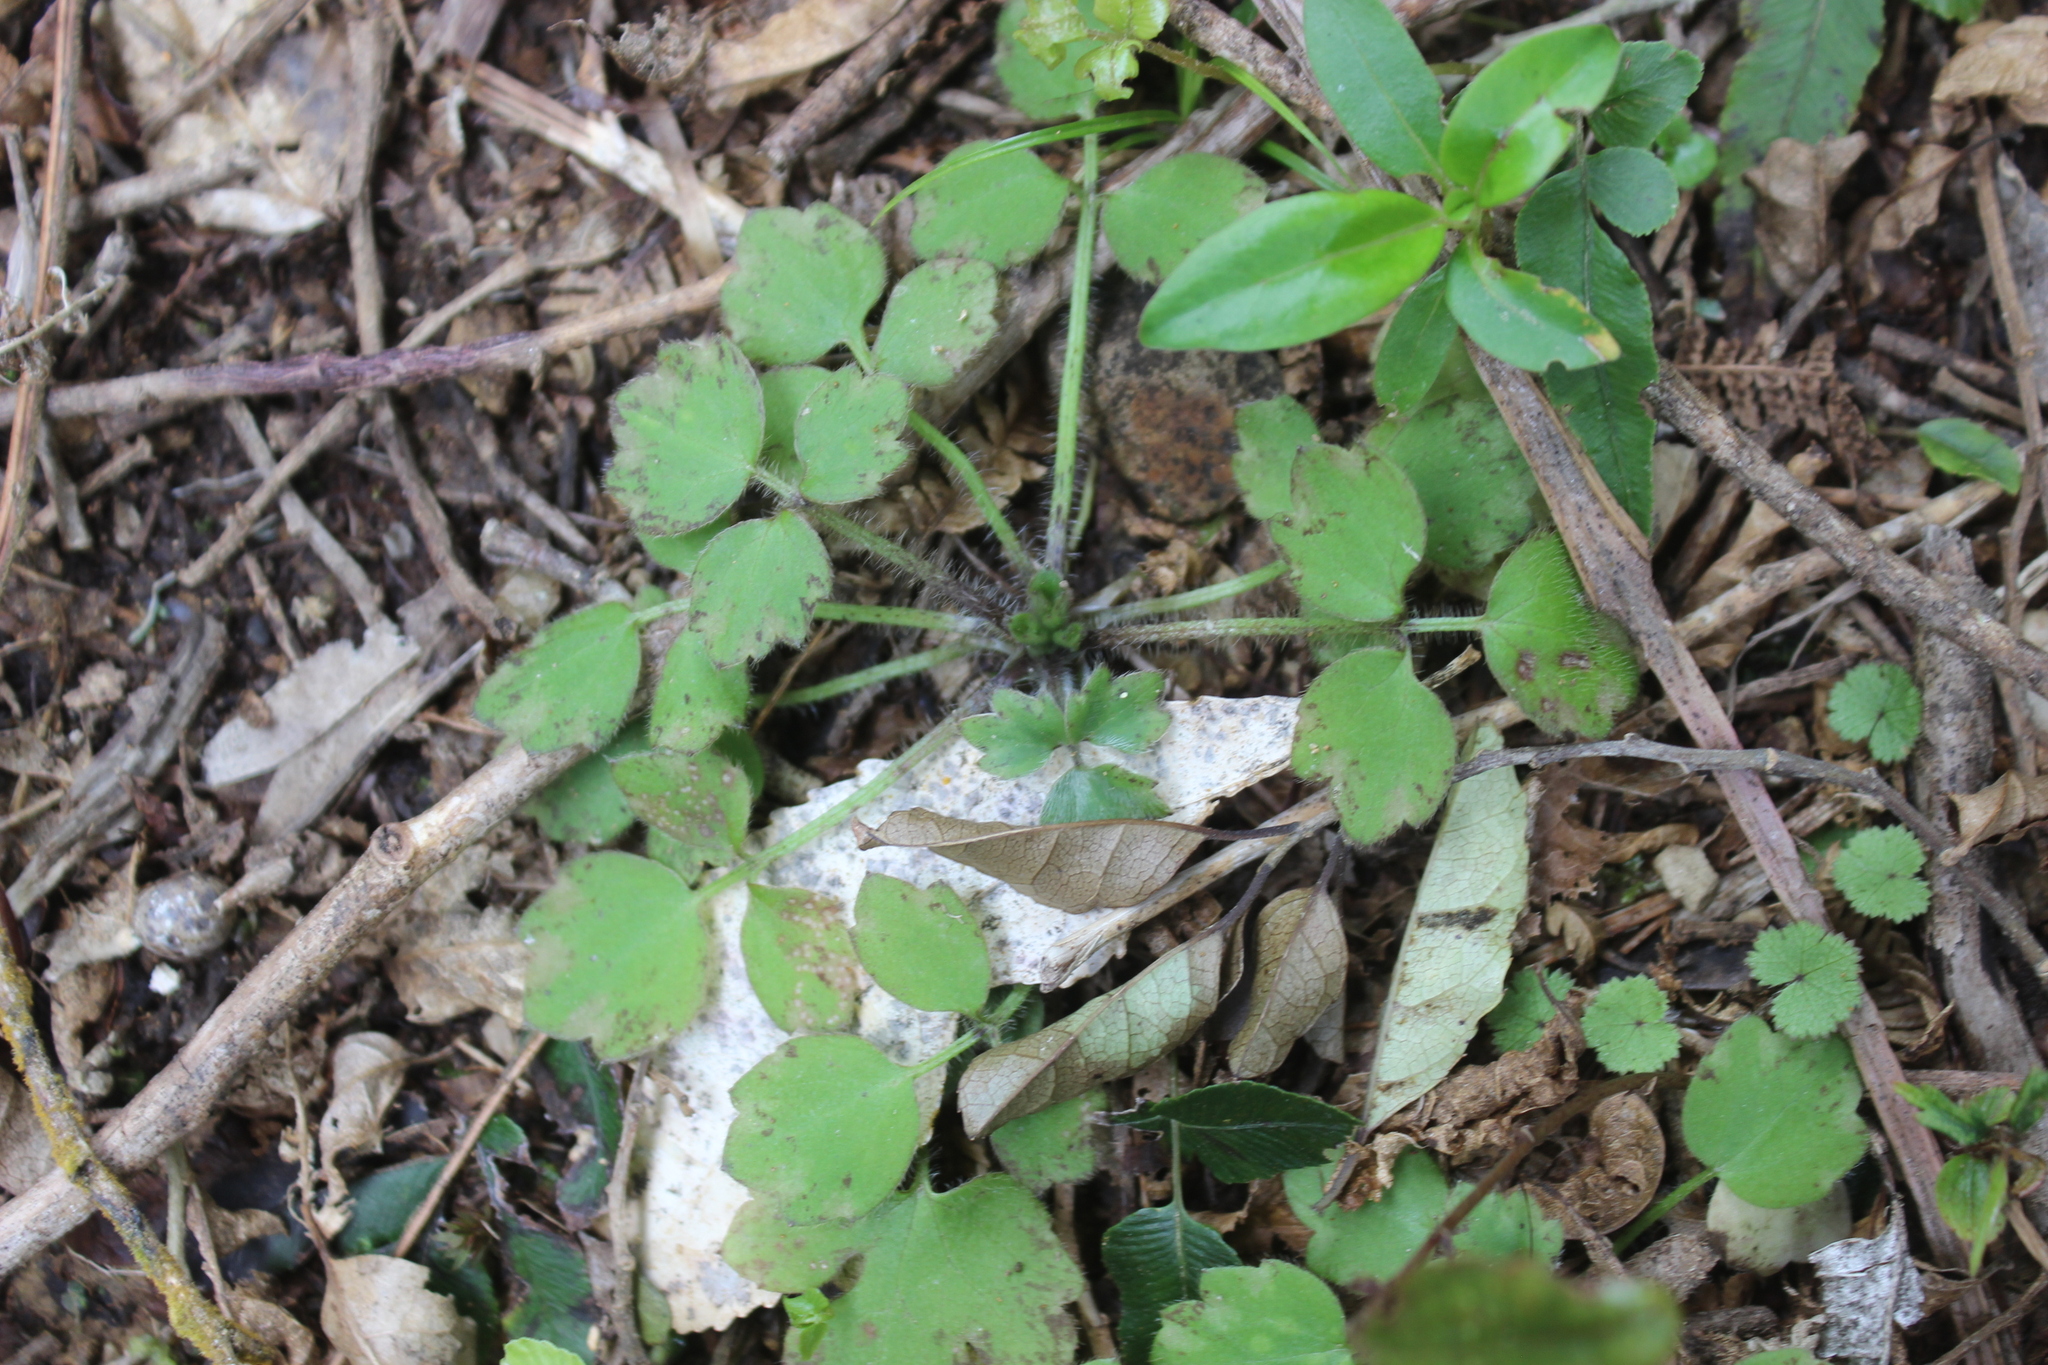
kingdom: Plantae
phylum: Tracheophyta
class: Magnoliopsida
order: Ranunculales
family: Ranunculaceae
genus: Ranunculus
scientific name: Ranunculus reflexus
